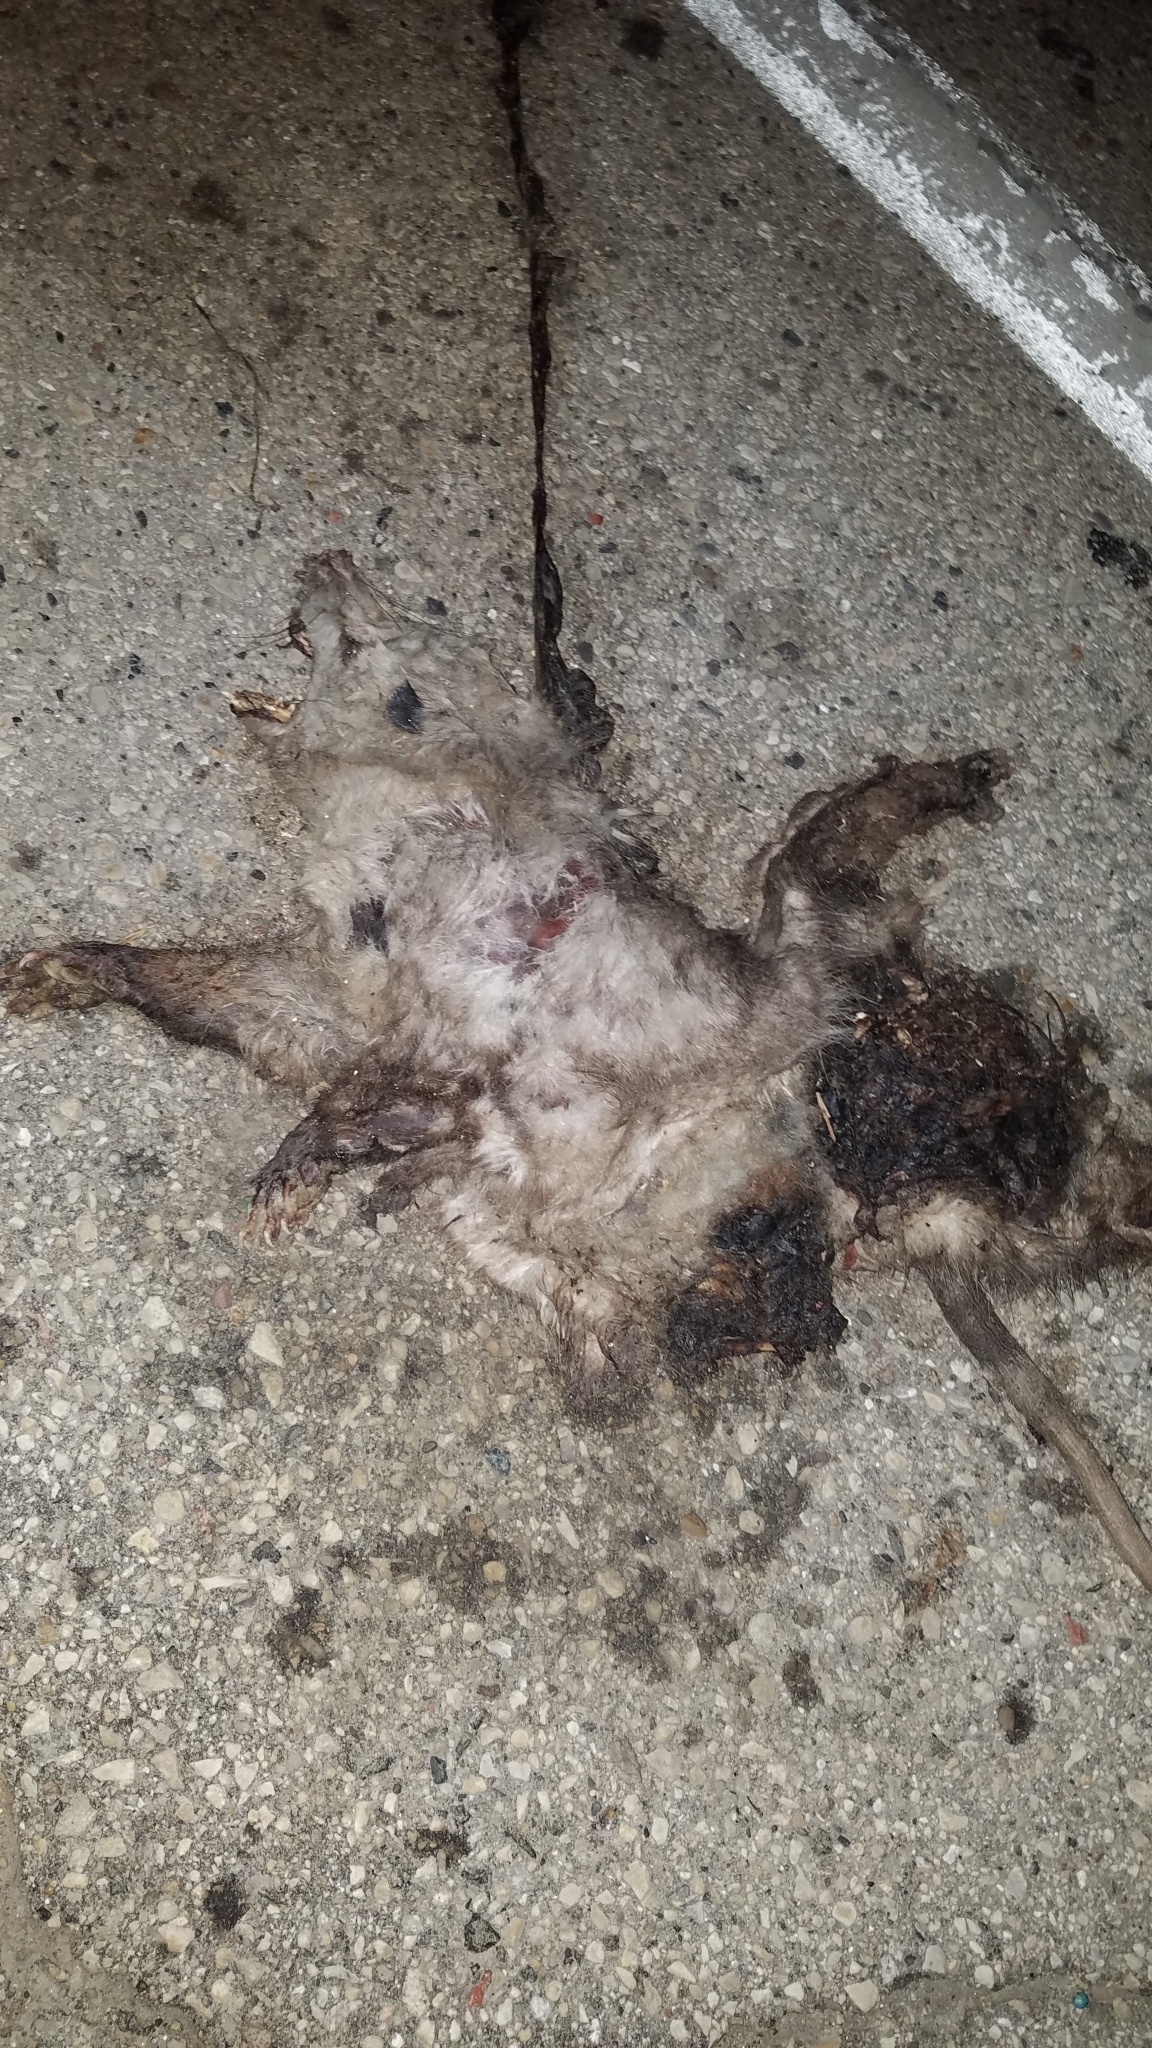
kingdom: Animalia
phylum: Chordata
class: Mammalia
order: Didelphimorphia
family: Didelphidae
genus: Didelphis
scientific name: Didelphis virginiana
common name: Virginia opossum
